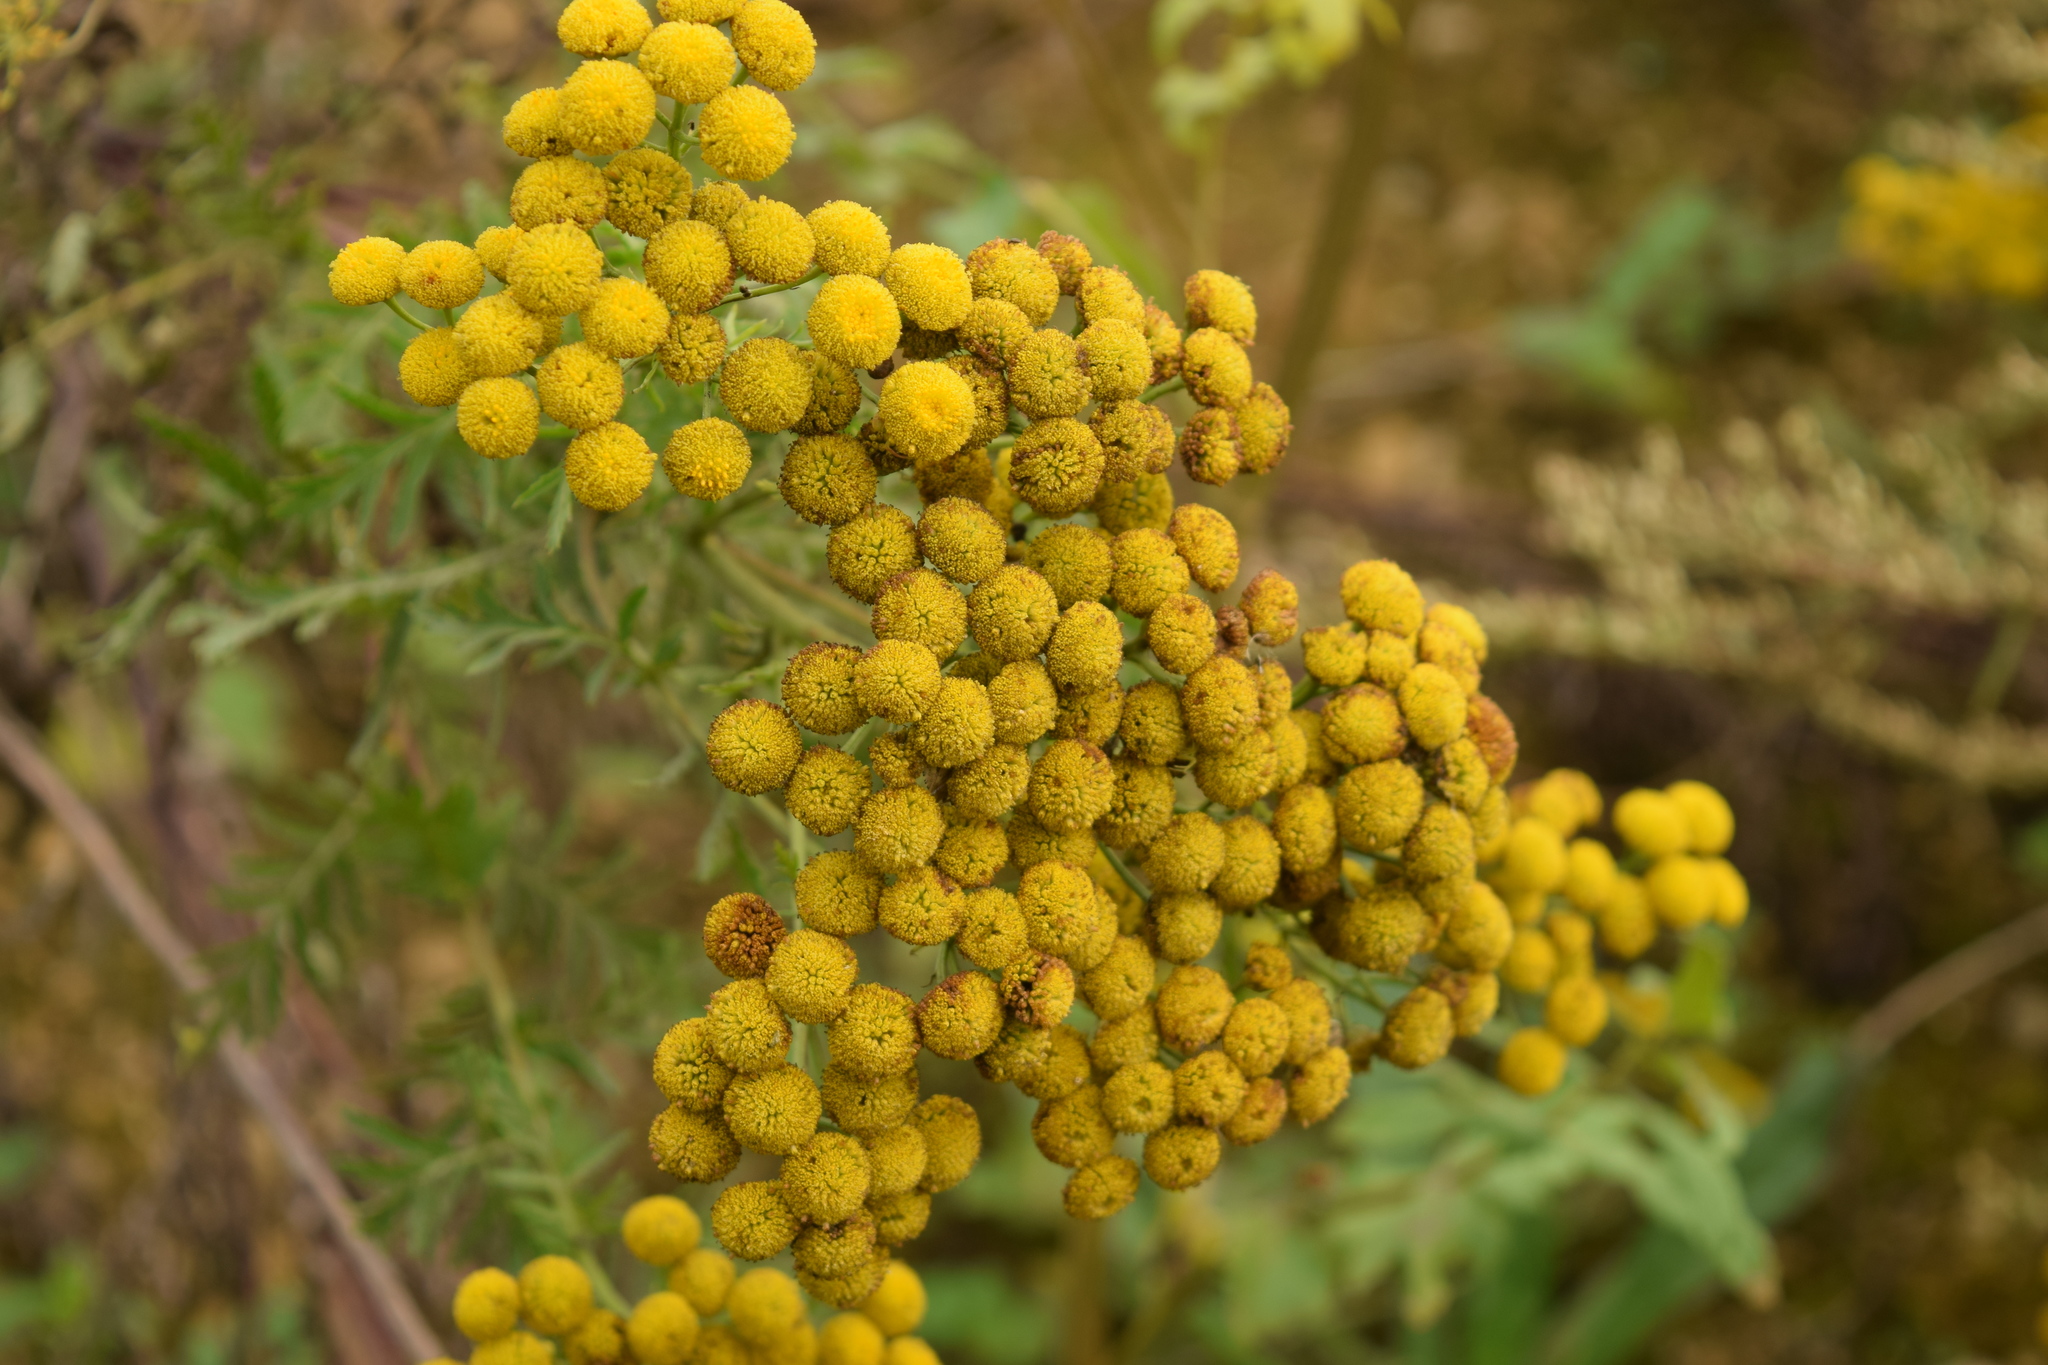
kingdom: Plantae
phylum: Tracheophyta
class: Magnoliopsida
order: Asterales
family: Asteraceae
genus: Tanacetum
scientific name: Tanacetum vulgare
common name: Common tansy
